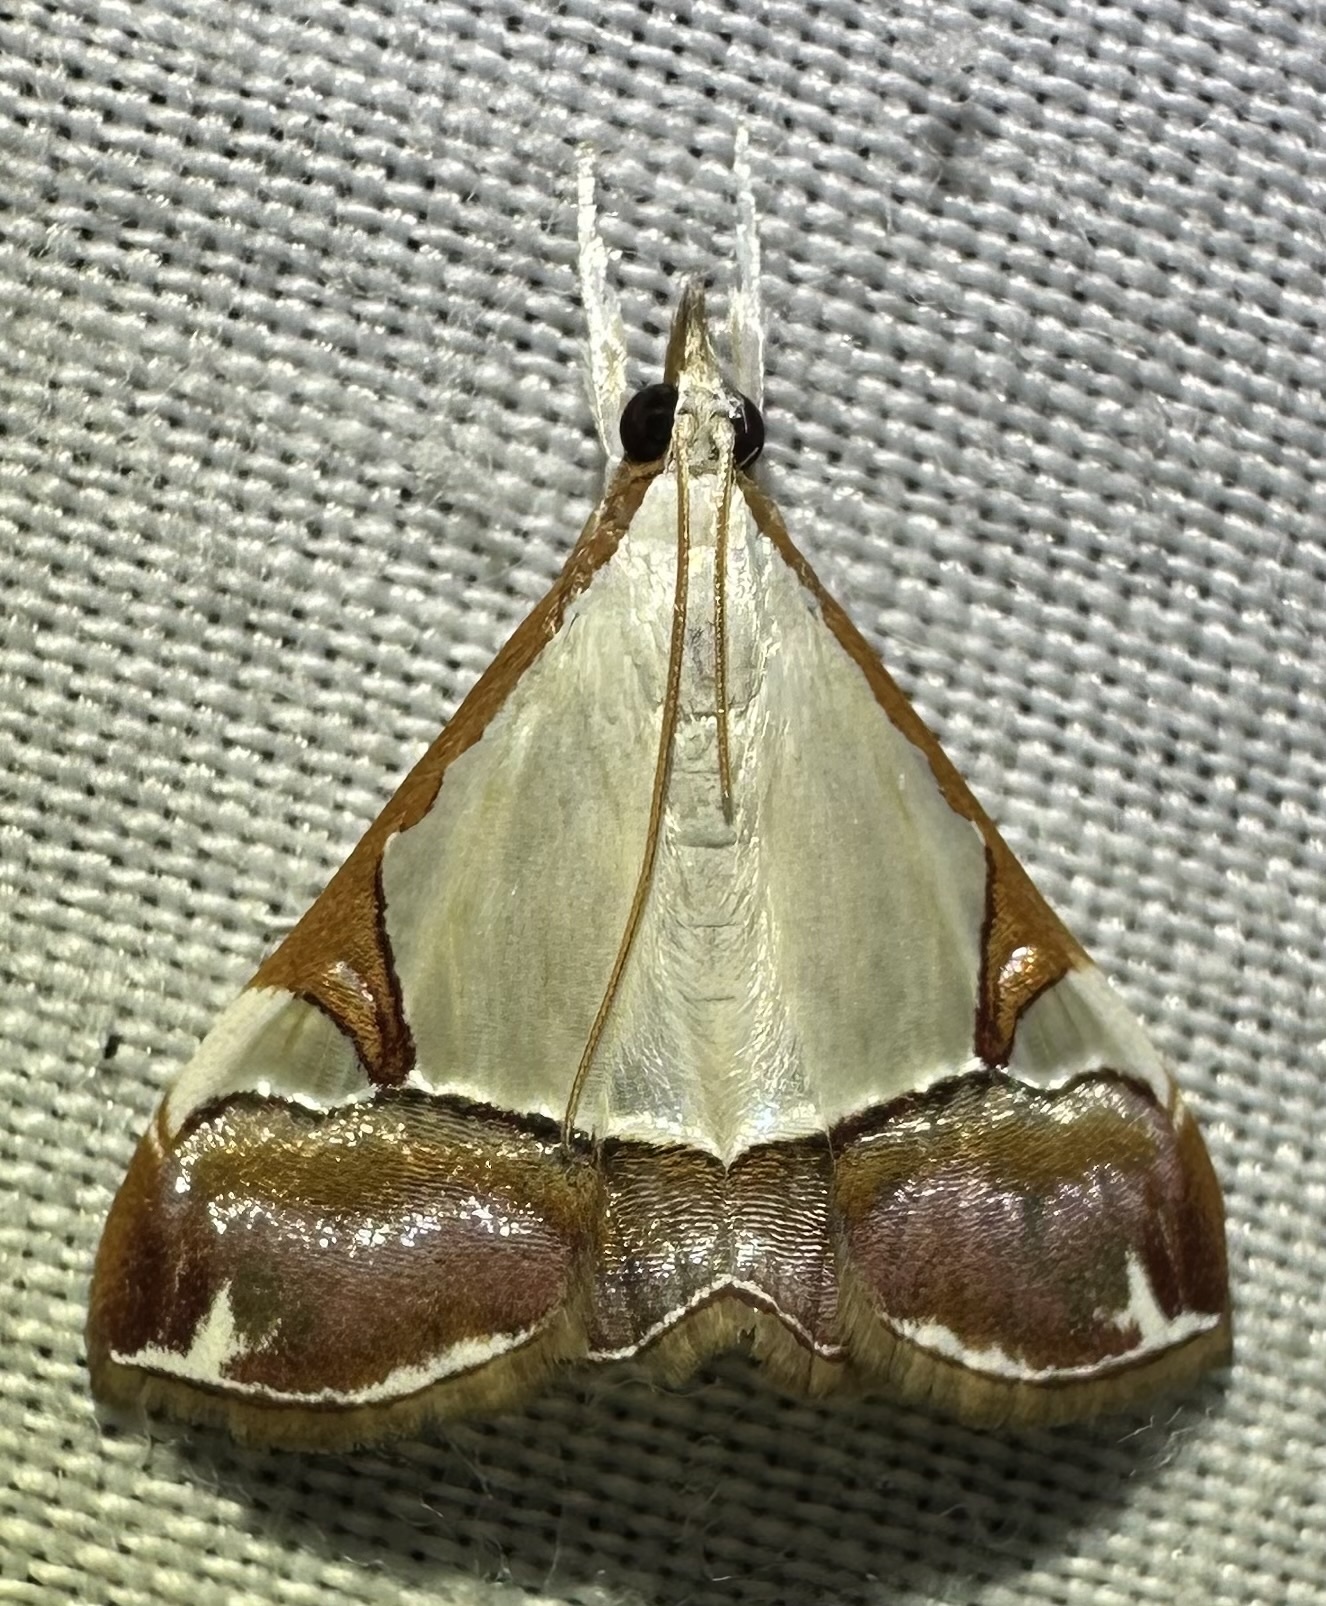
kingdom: Animalia
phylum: Arthropoda
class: Insecta
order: Lepidoptera
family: Crambidae
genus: Autocharis
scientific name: Autocharis margaritalis
